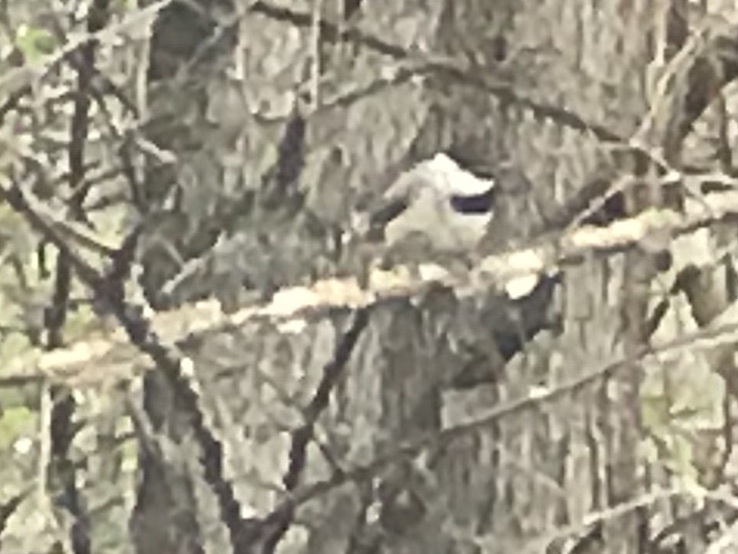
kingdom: Animalia
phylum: Chordata
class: Aves
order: Passeriformes
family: Paridae
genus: Poecile
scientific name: Poecile carolinensis
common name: Carolina chickadee
